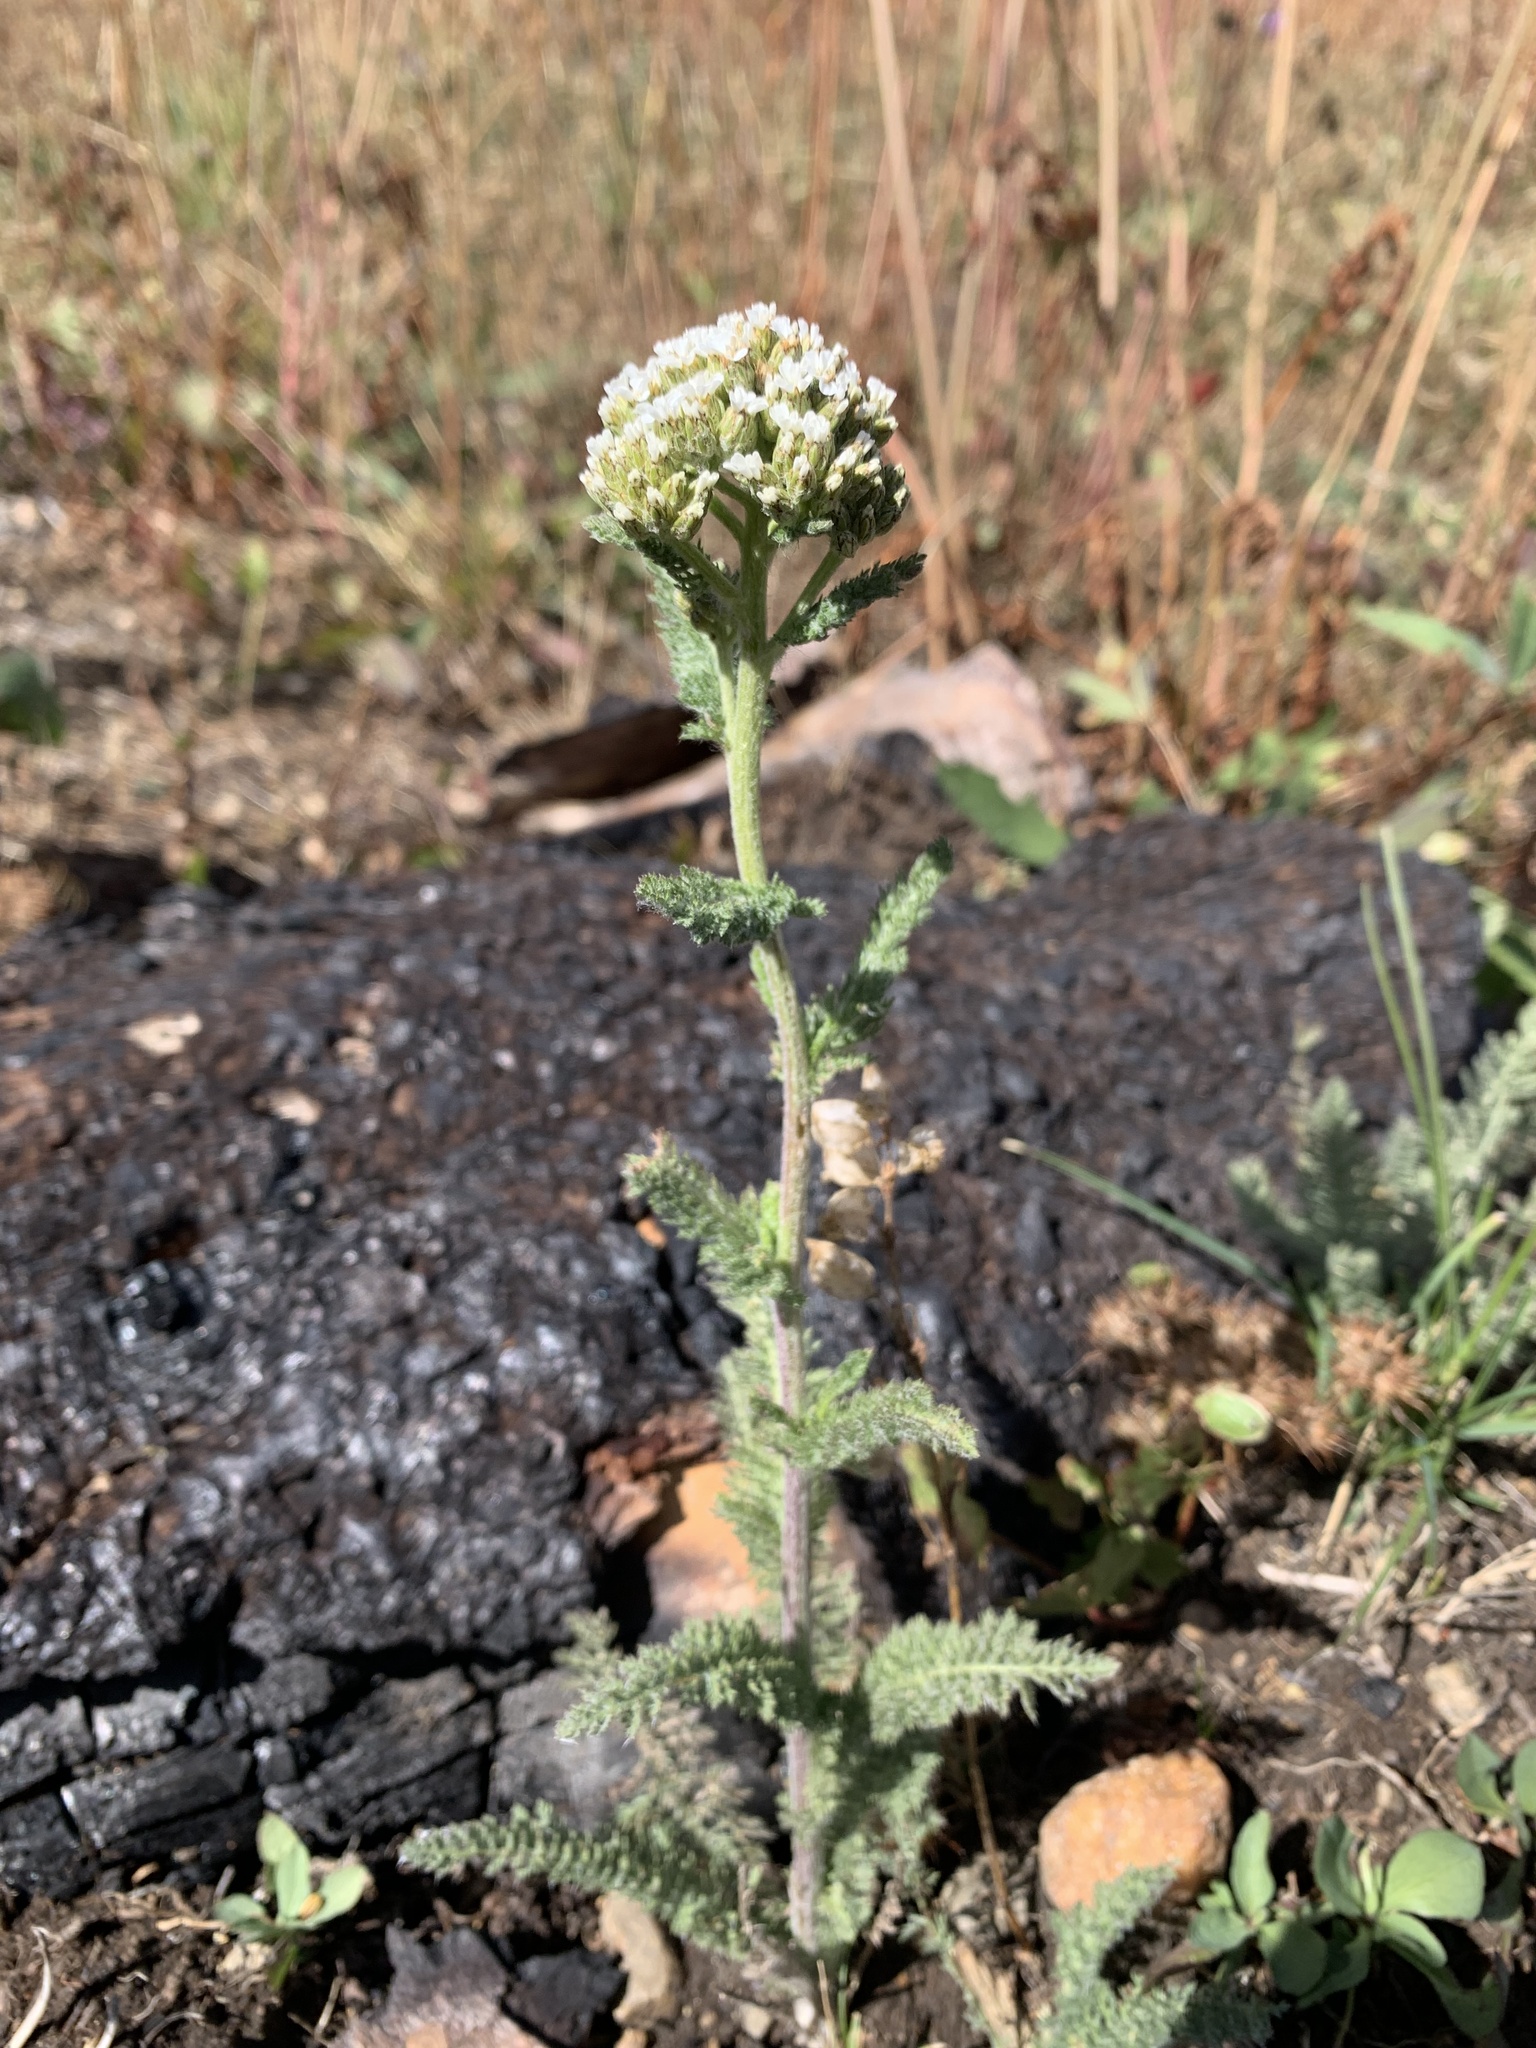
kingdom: Plantae
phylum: Tracheophyta
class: Magnoliopsida
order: Asterales
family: Asteraceae
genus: Achillea
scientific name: Achillea millefolium
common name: Yarrow
